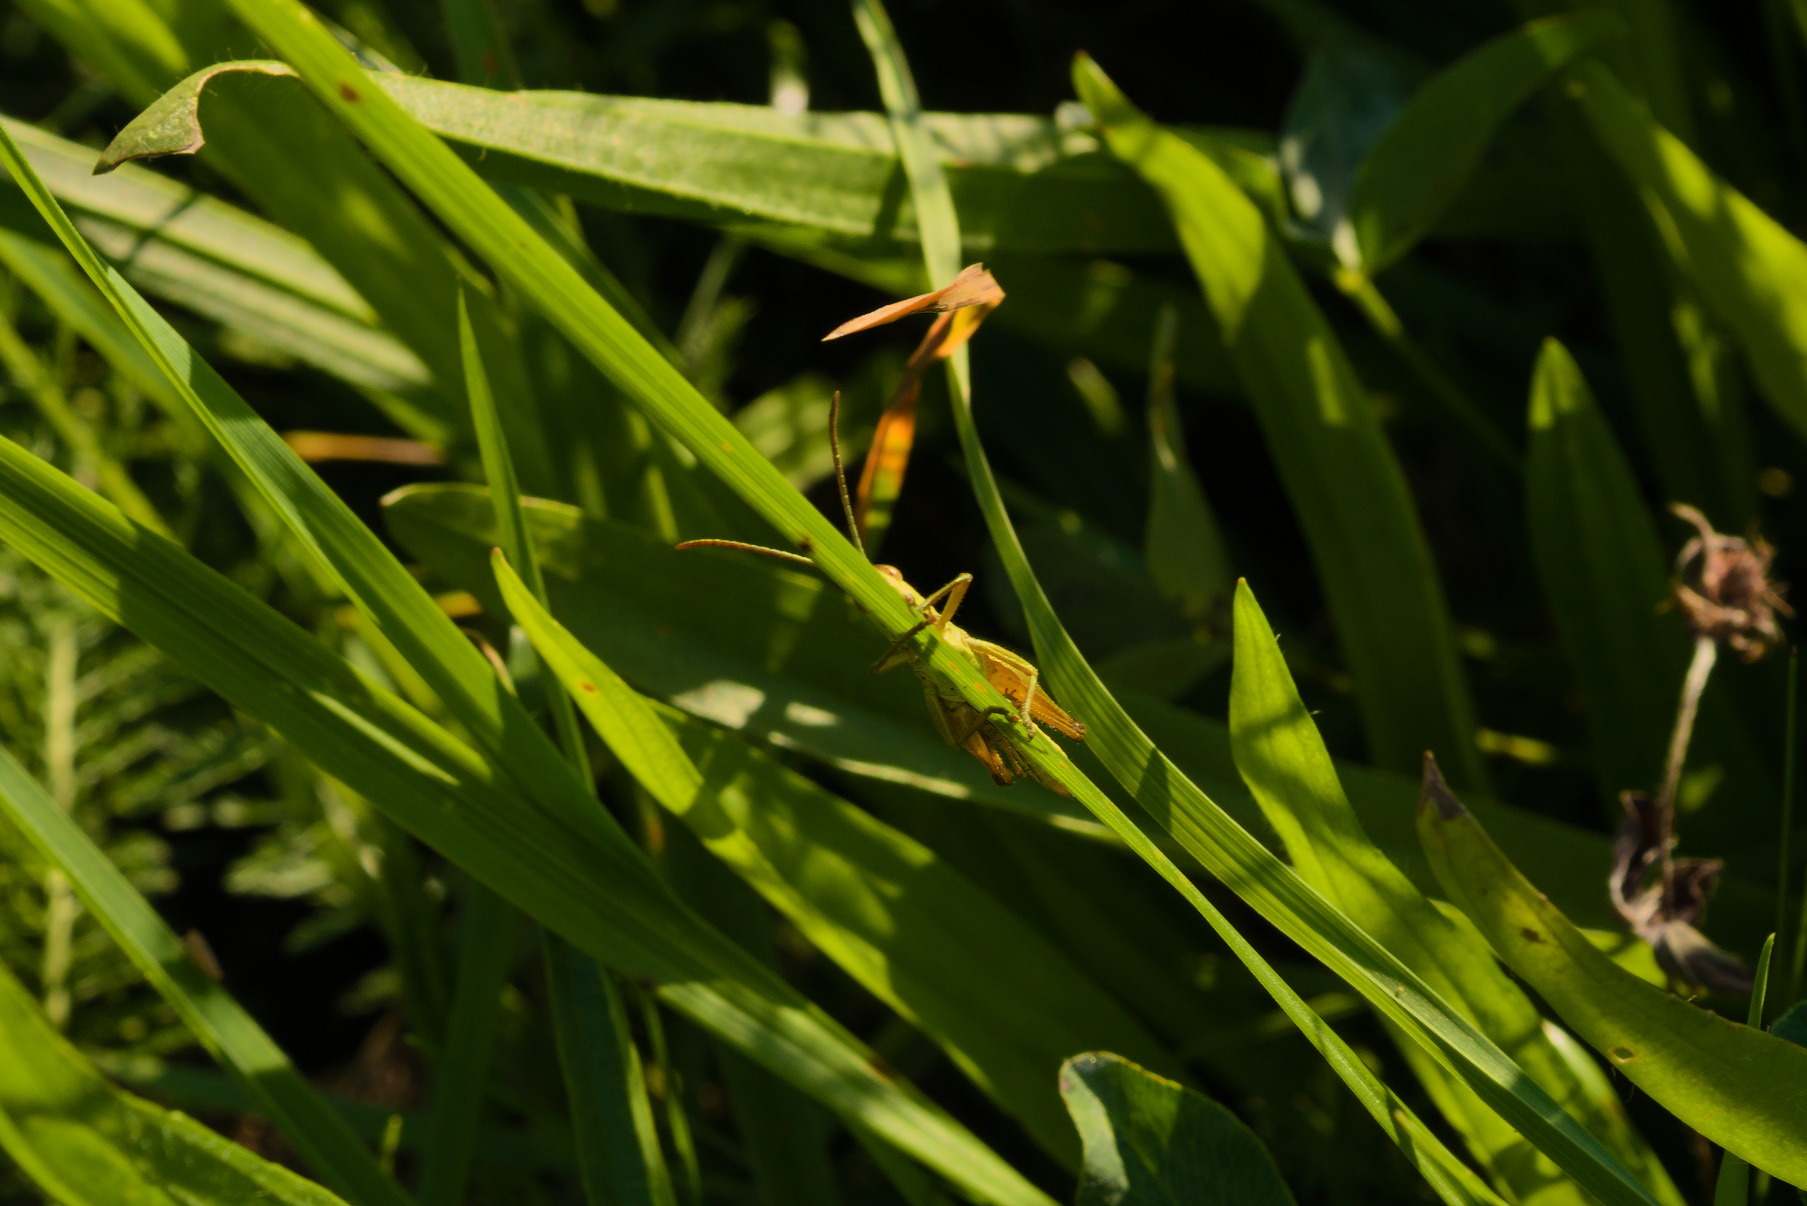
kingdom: Animalia
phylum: Arthropoda
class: Insecta
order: Orthoptera
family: Acrididae
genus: Pseudochorthippus
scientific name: Pseudochorthippus parallelus
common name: Meadow grasshopper
